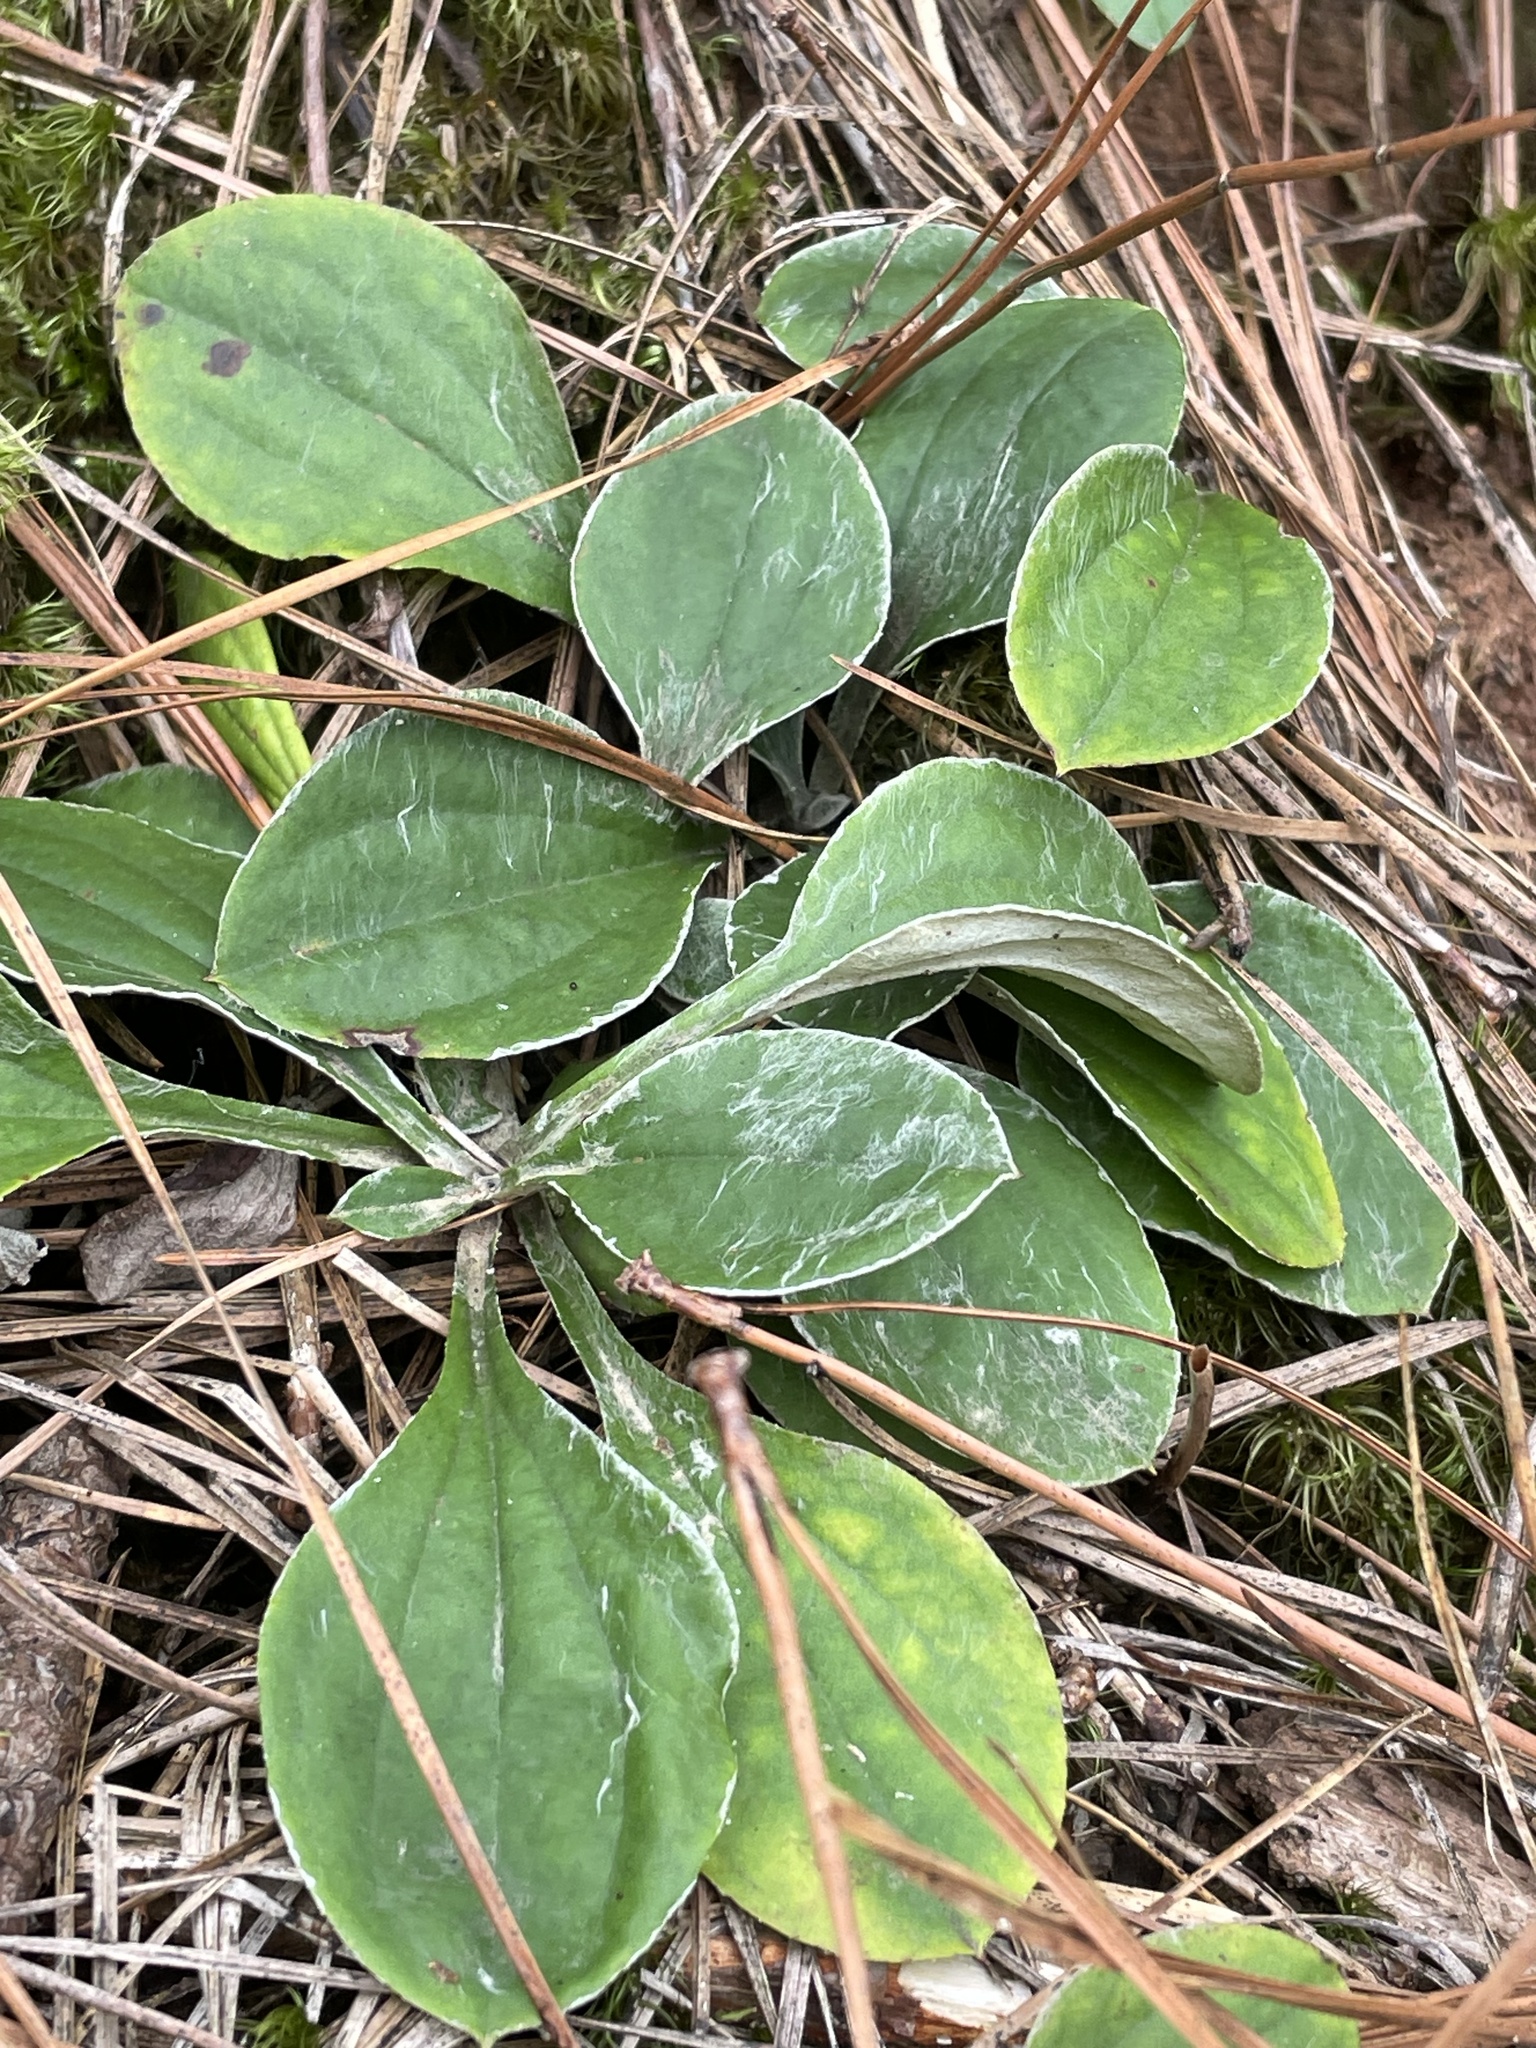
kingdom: Plantae
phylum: Tracheophyta
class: Magnoliopsida
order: Asterales
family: Asteraceae
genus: Antennaria
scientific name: Antennaria parlinii
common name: Parlin's pussytoes
